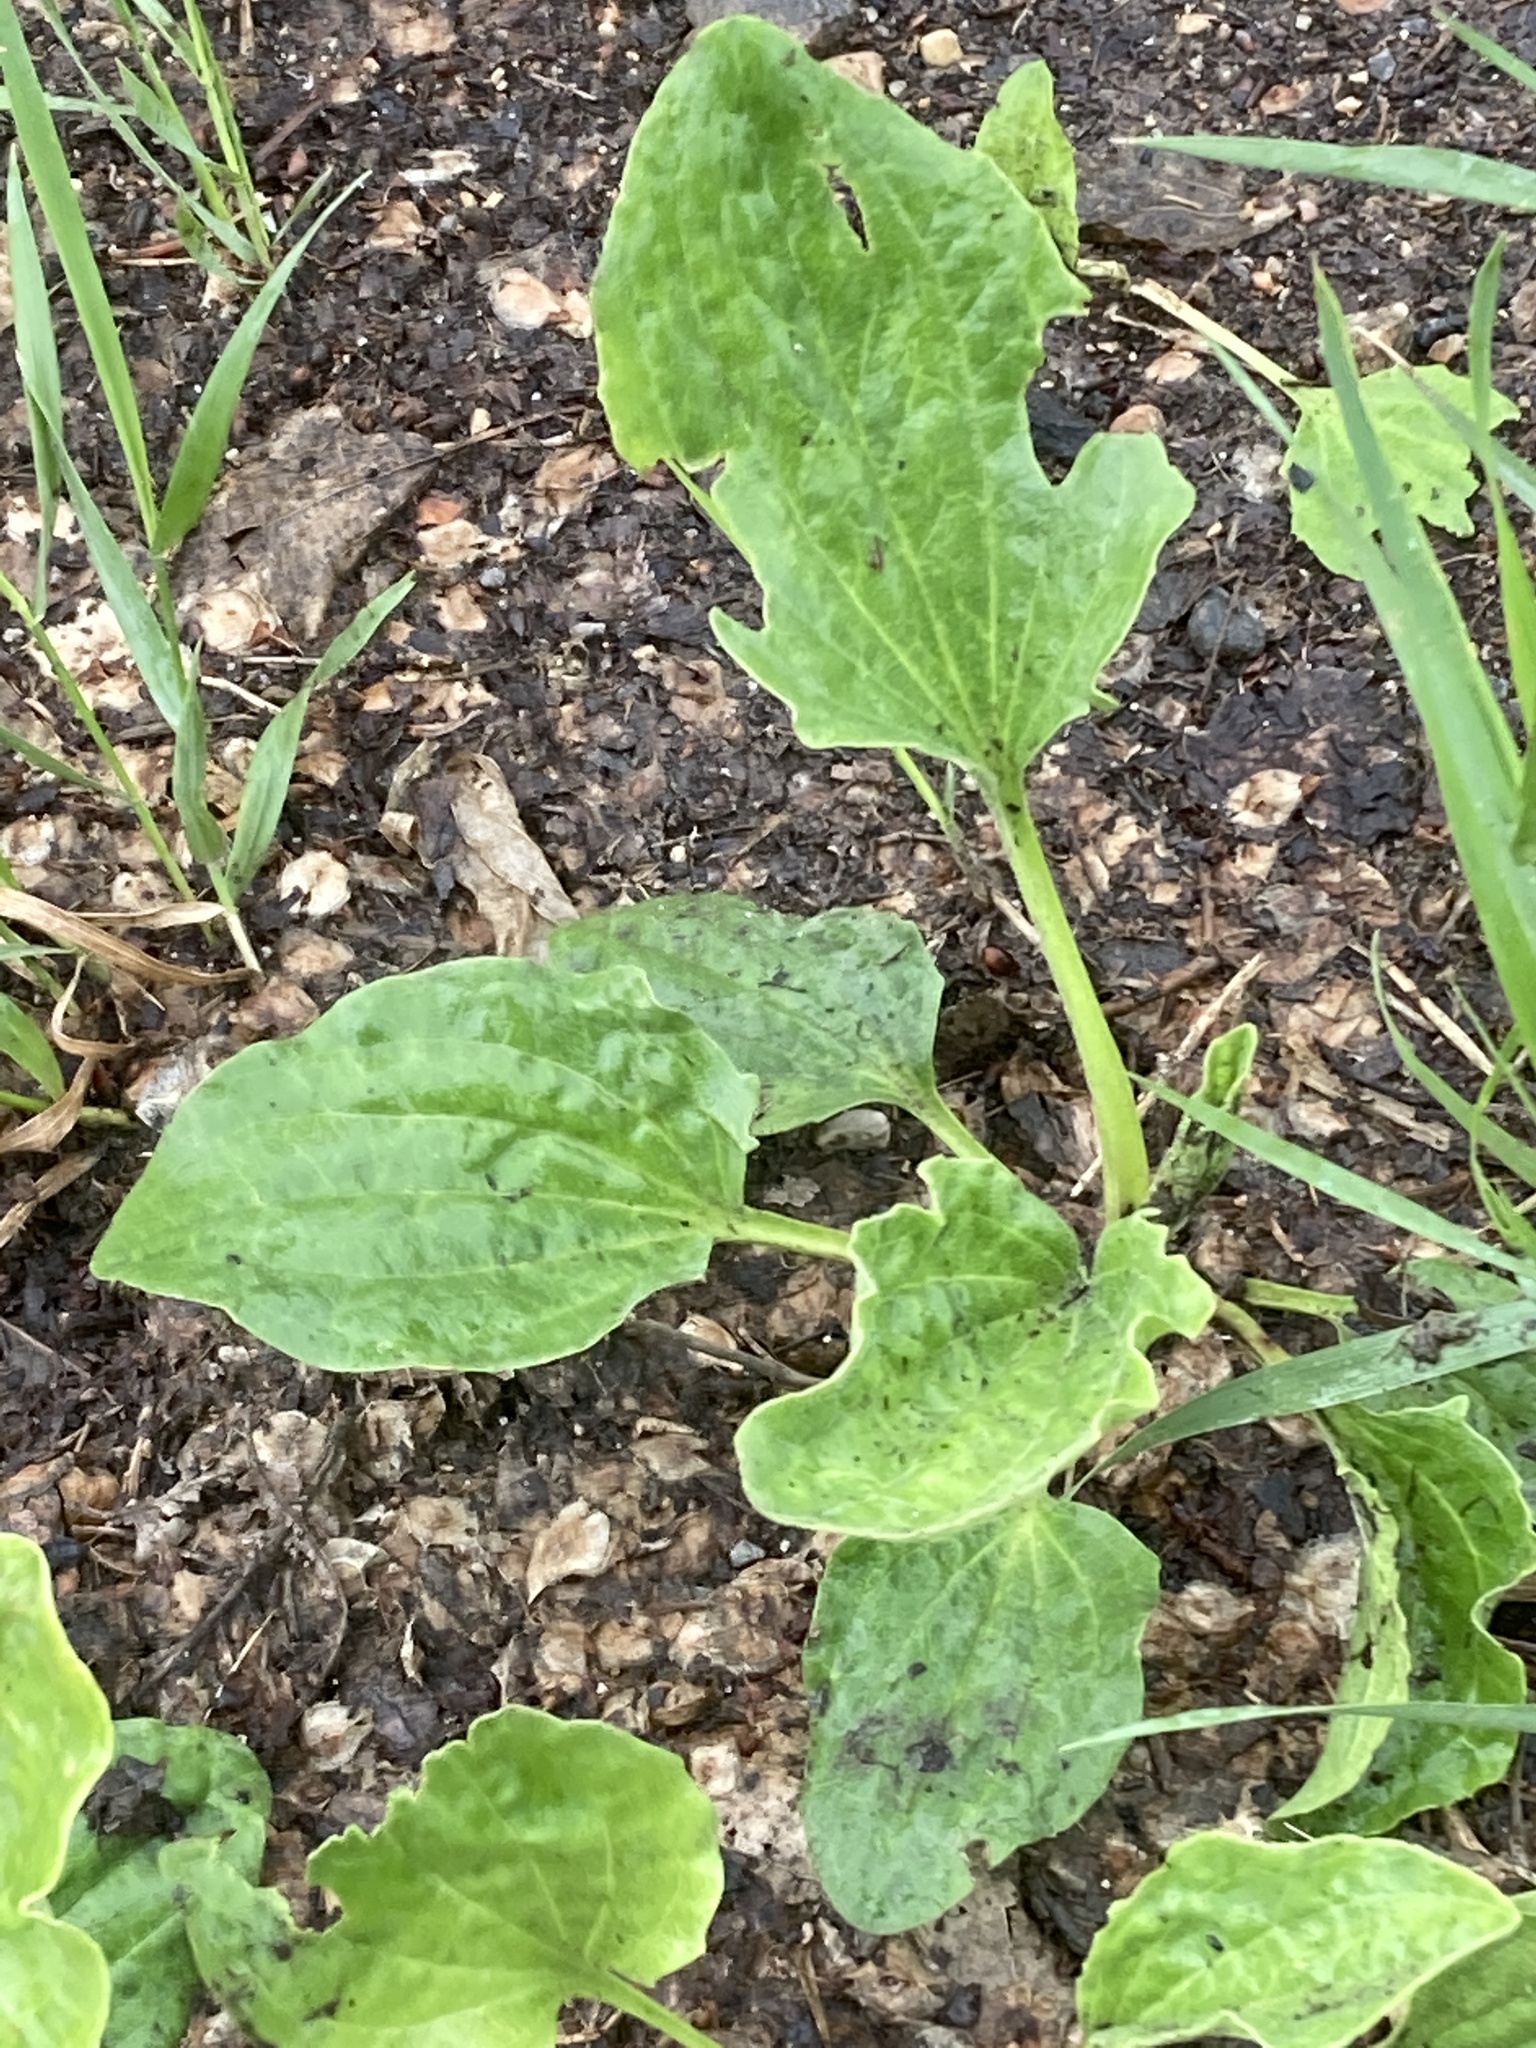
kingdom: Plantae
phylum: Tracheophyta
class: Magnoliopsida
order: Lamiales
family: Plantaginaceae
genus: Plantago
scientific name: Plantago major
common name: Common plantain
